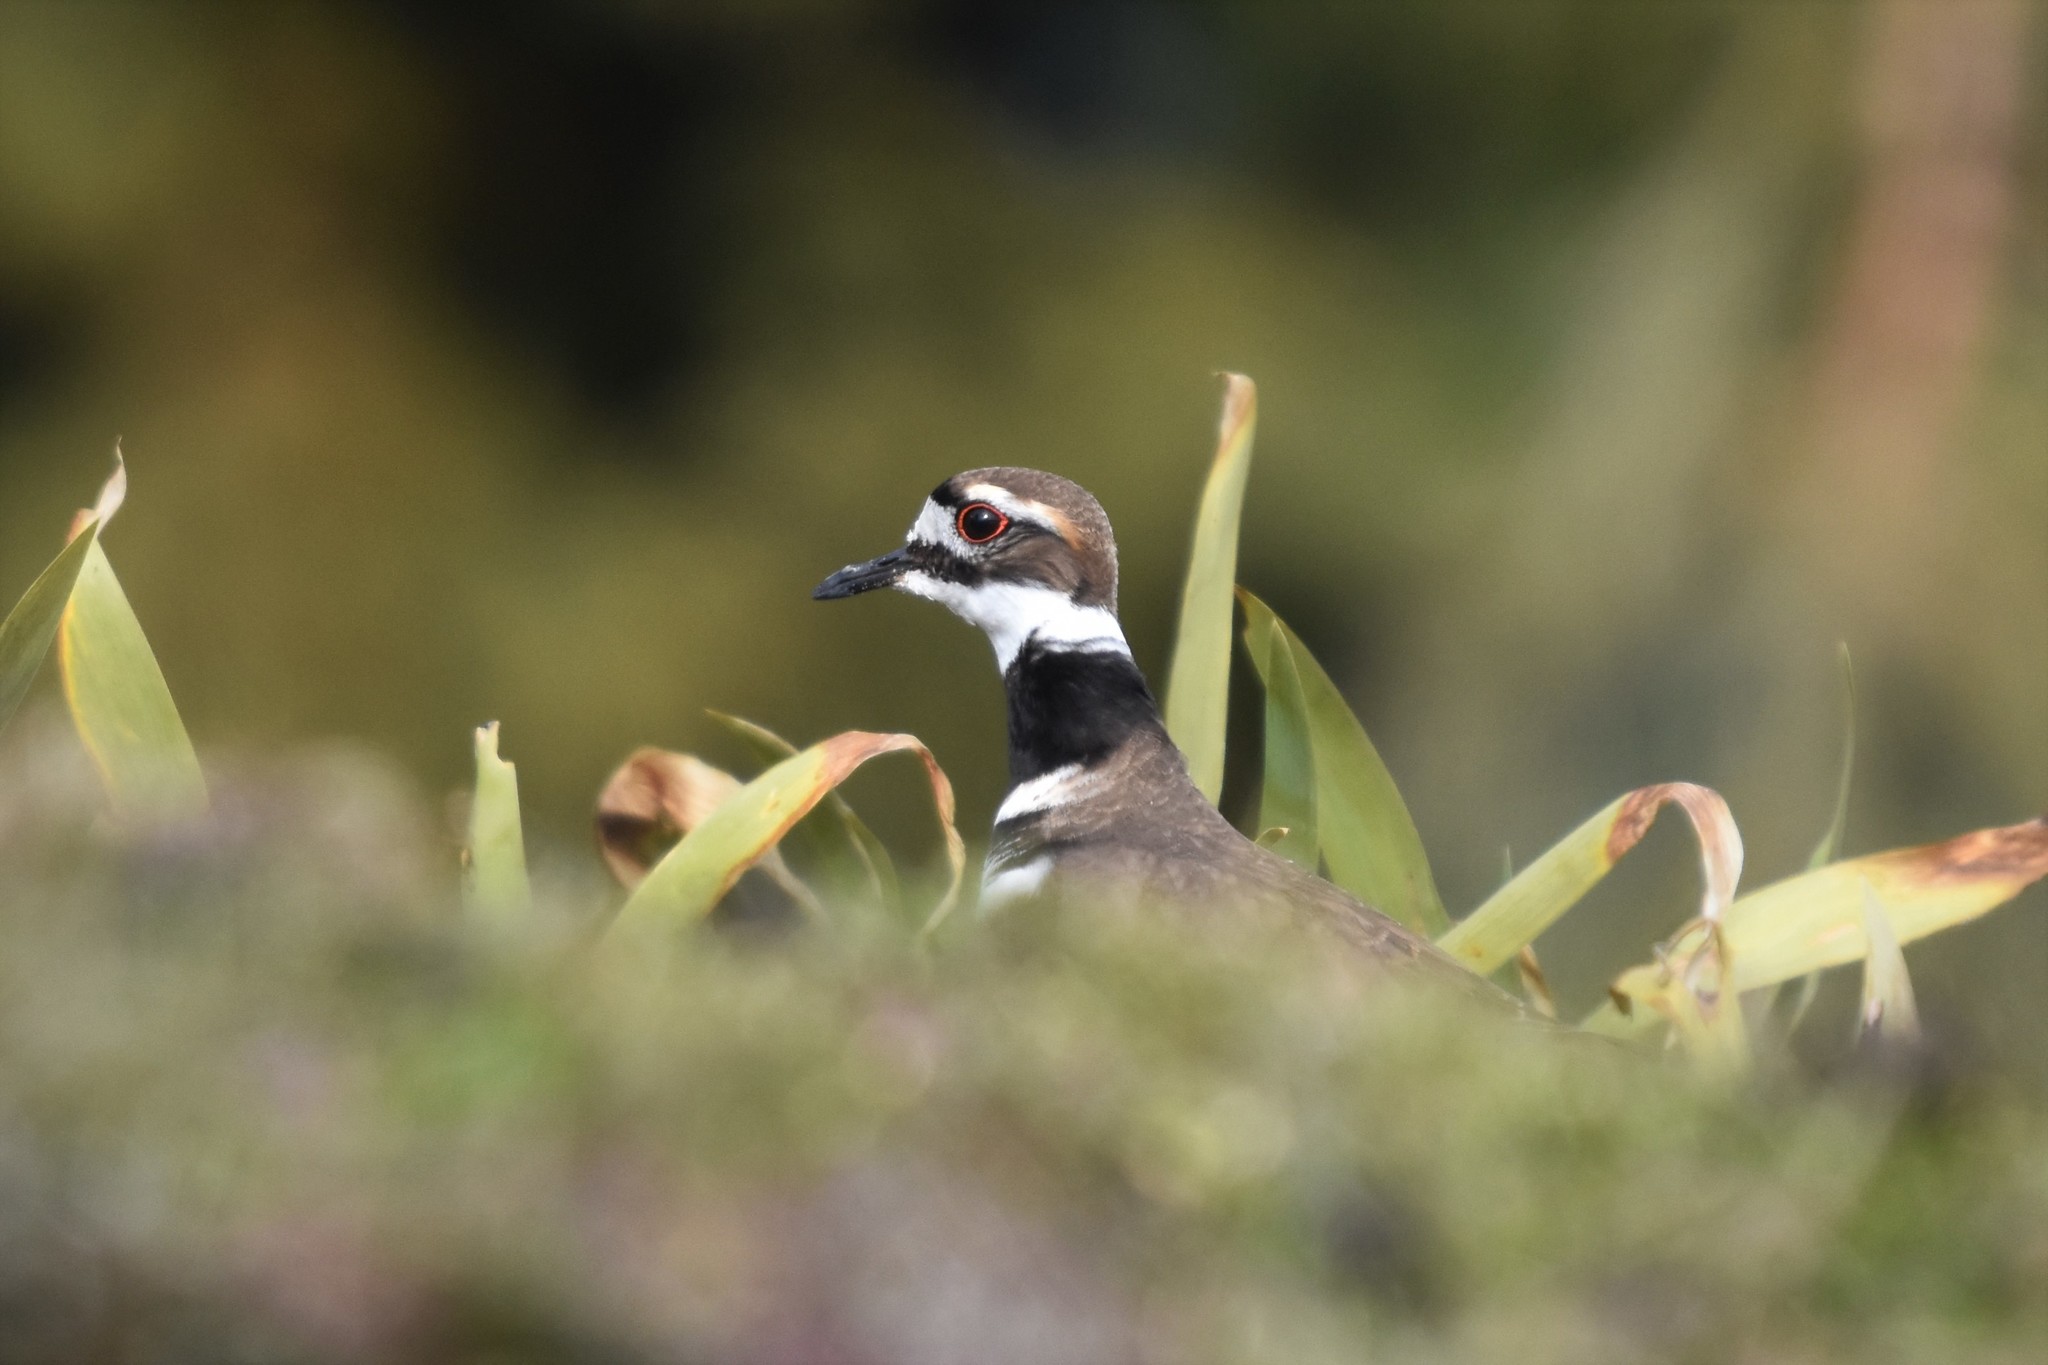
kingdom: Animalia
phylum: Chordata
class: Aves
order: Charadriiformes
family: Charadriidae
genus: Charadrius
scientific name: Charadrius vociferus
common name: Killdeer
